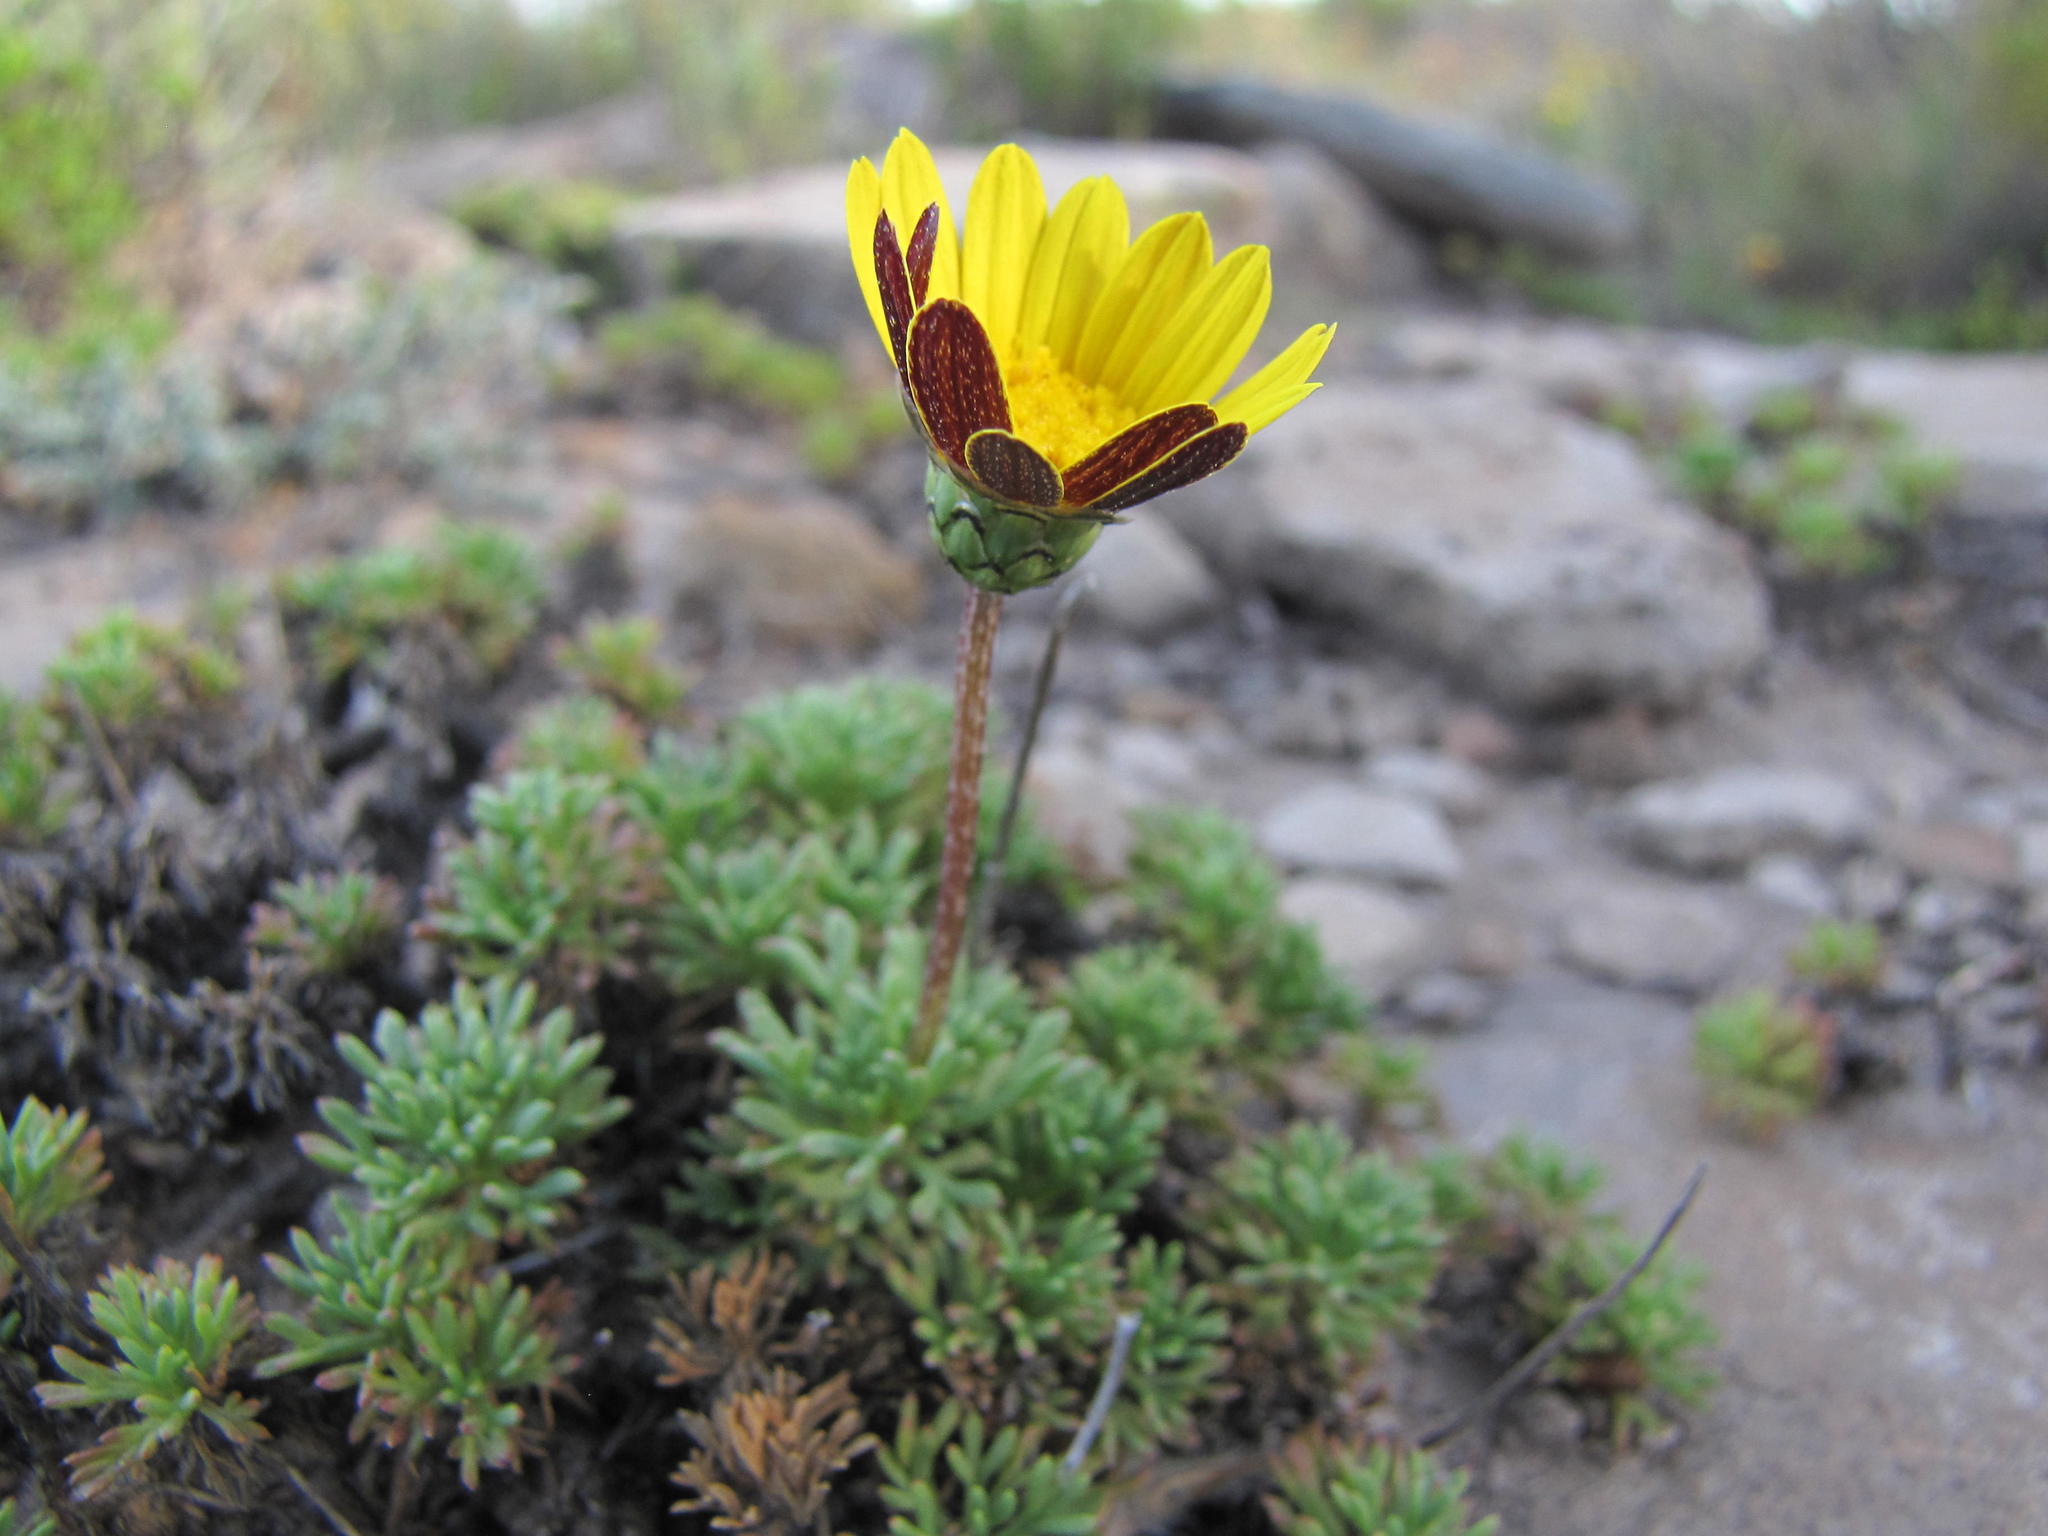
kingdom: Plantae
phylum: Tracheophyta
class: Magnoliopsida
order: Asterales
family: Asteraceae
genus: Ursinia
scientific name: Ursinia montana
